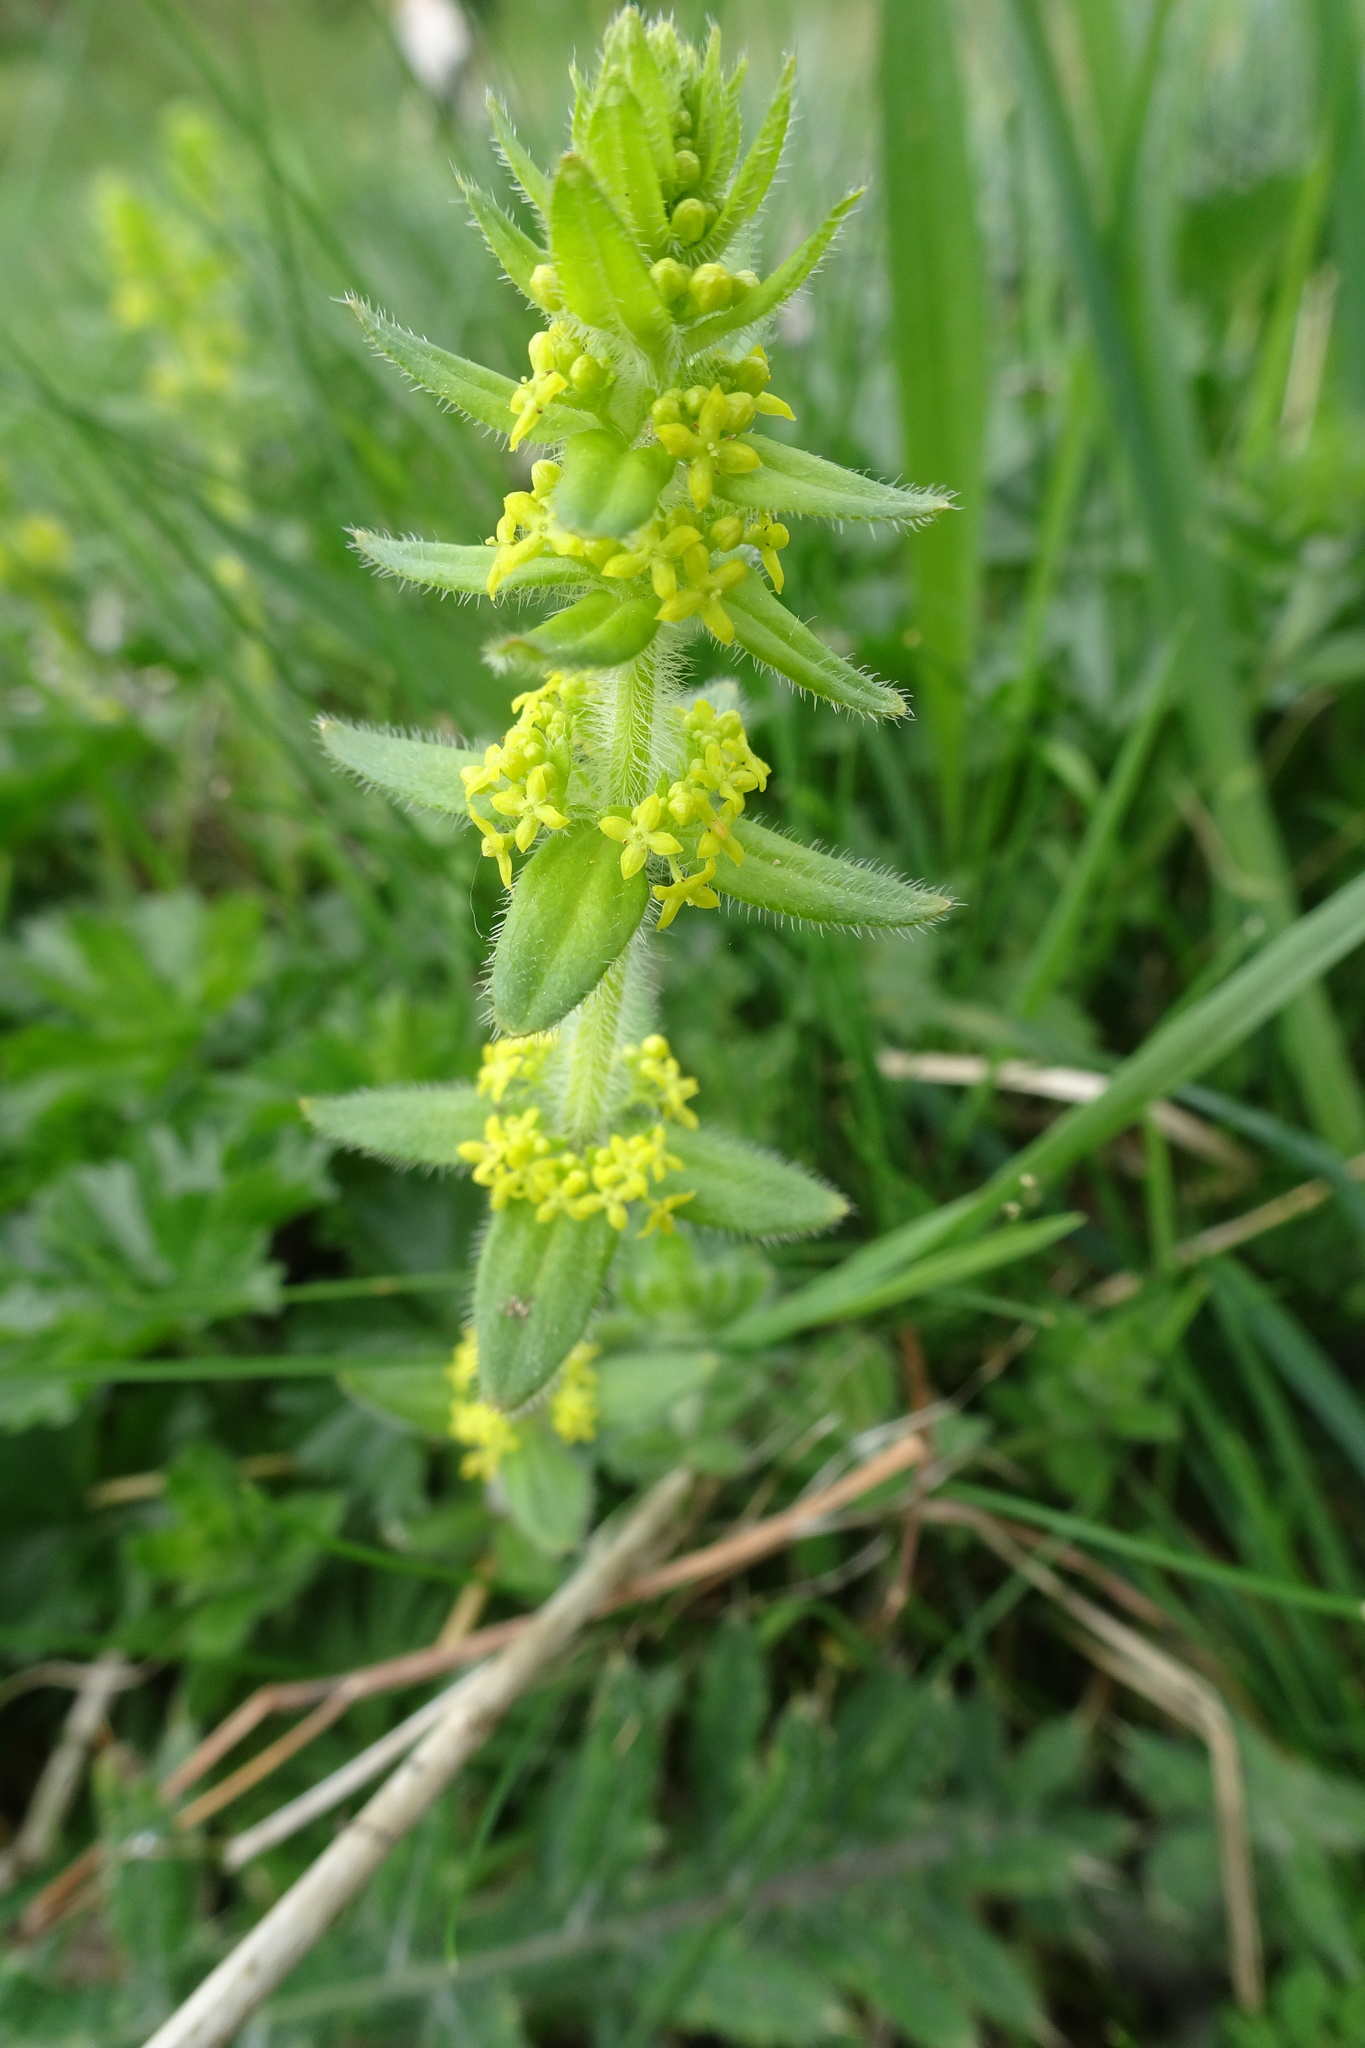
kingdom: Plantae
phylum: Tracheophyta
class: Magnoliopsida
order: Gentianales
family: Rubiaceae
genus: Cruciata
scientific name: Cruciata laevipes
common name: Crosswort
